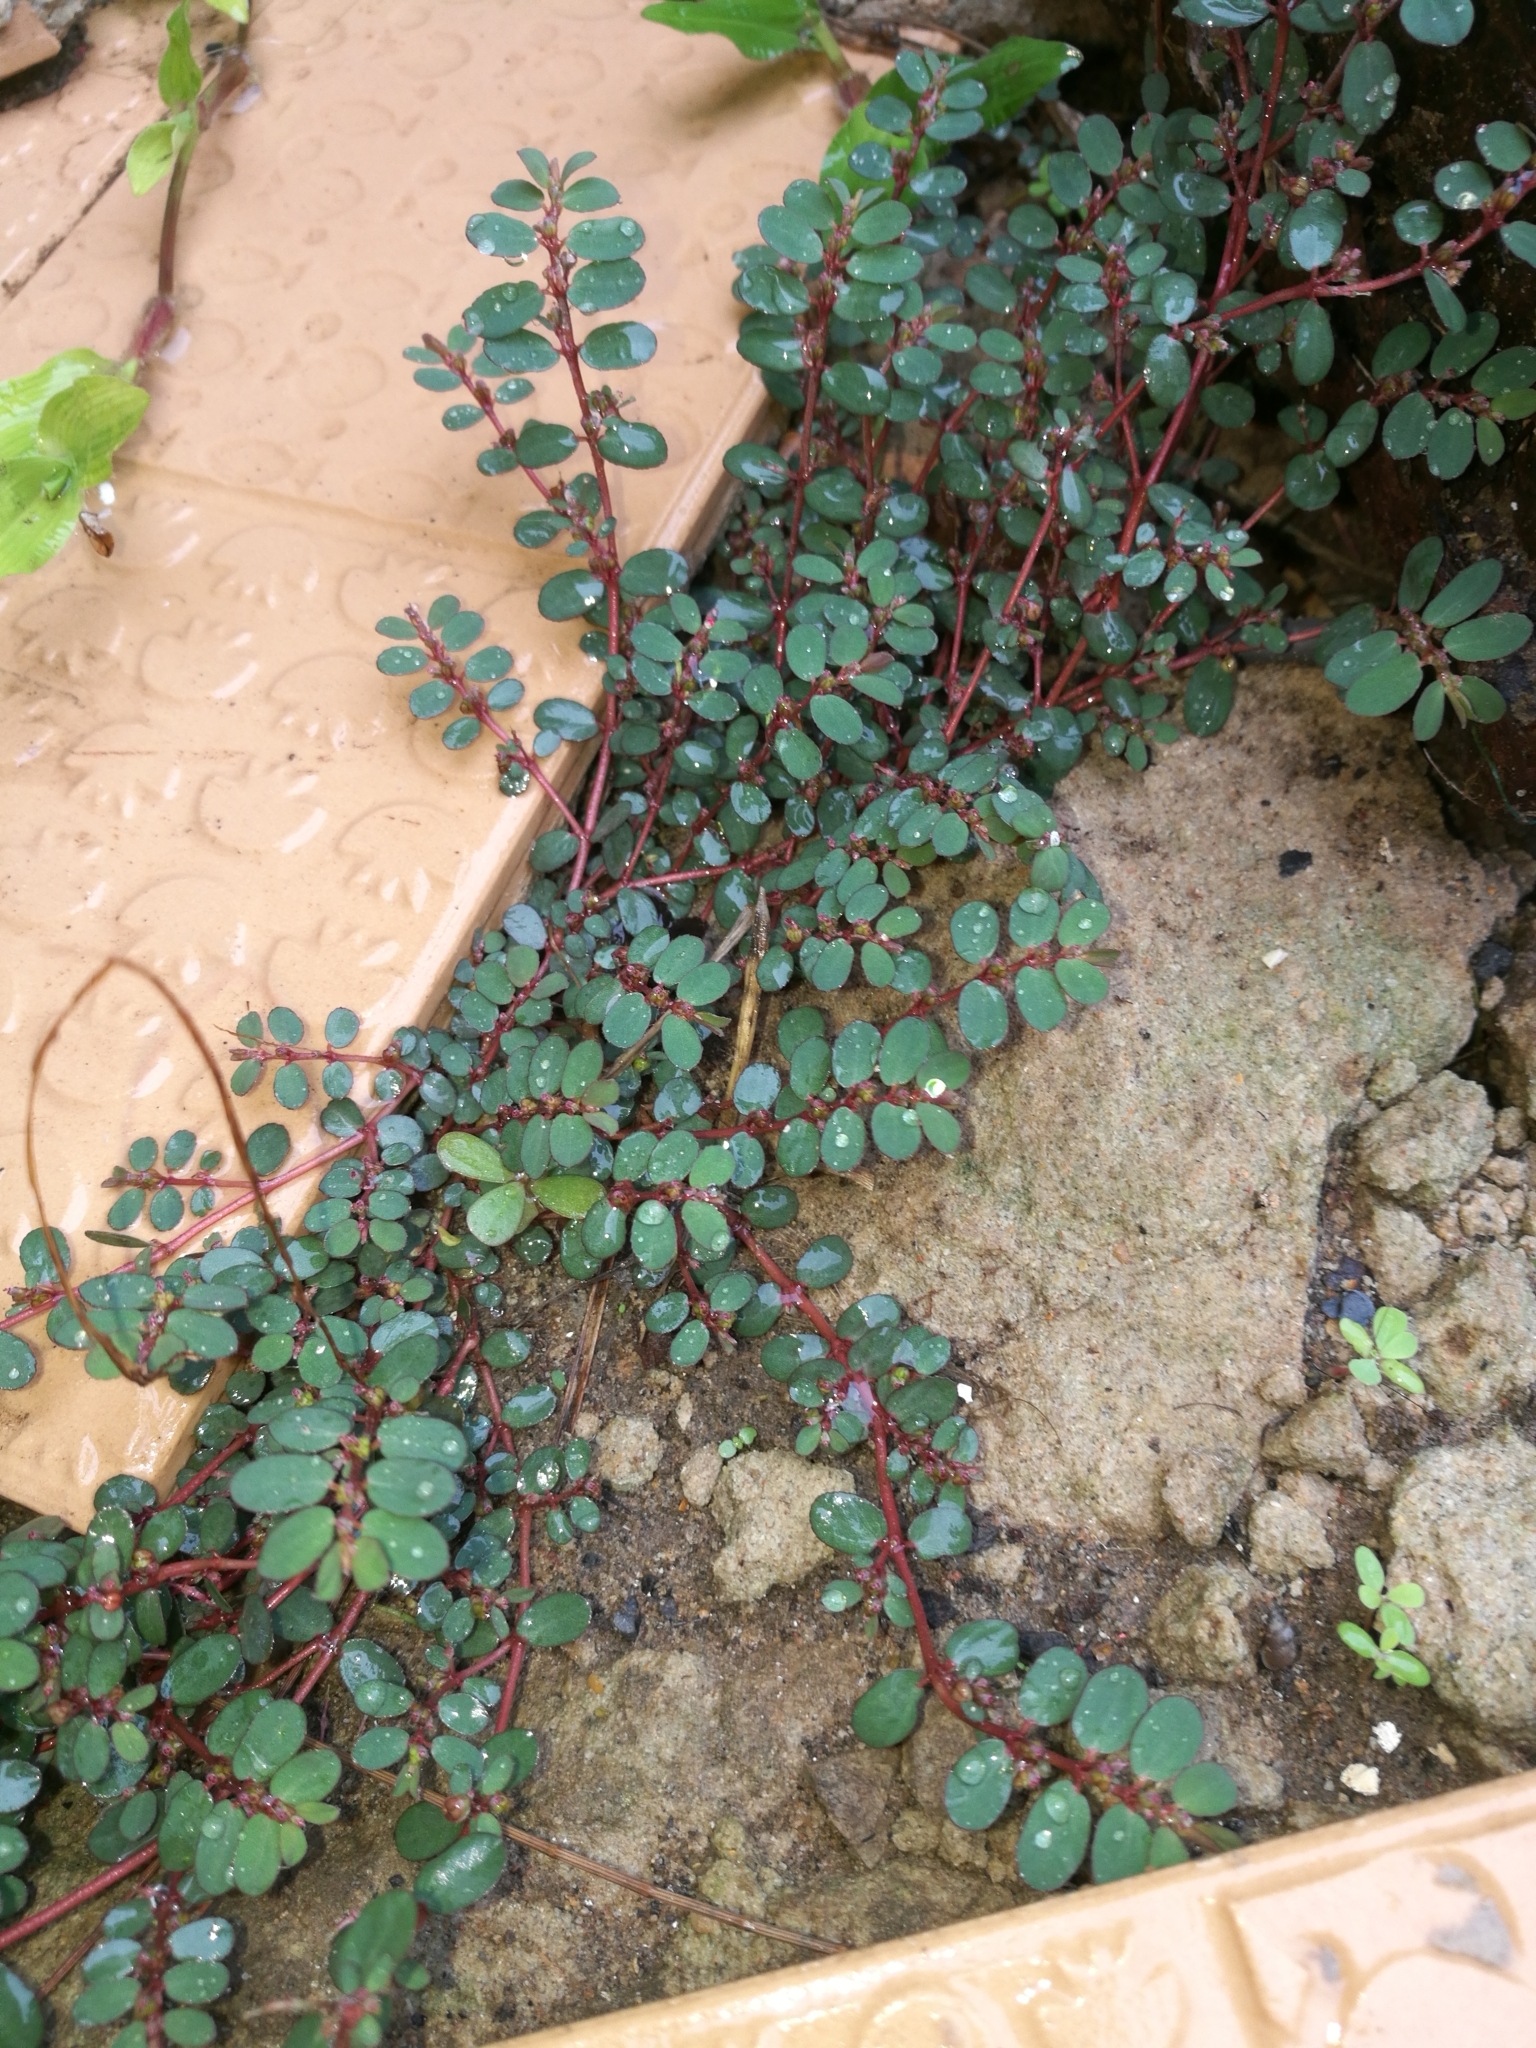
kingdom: Plantae
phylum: Tracheophyta
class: Magnoliopsida
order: Malpighiales
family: Euphorbiaceae
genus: Euphorbia
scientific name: Euphorbia prostrata
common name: Prostrate sandmat
